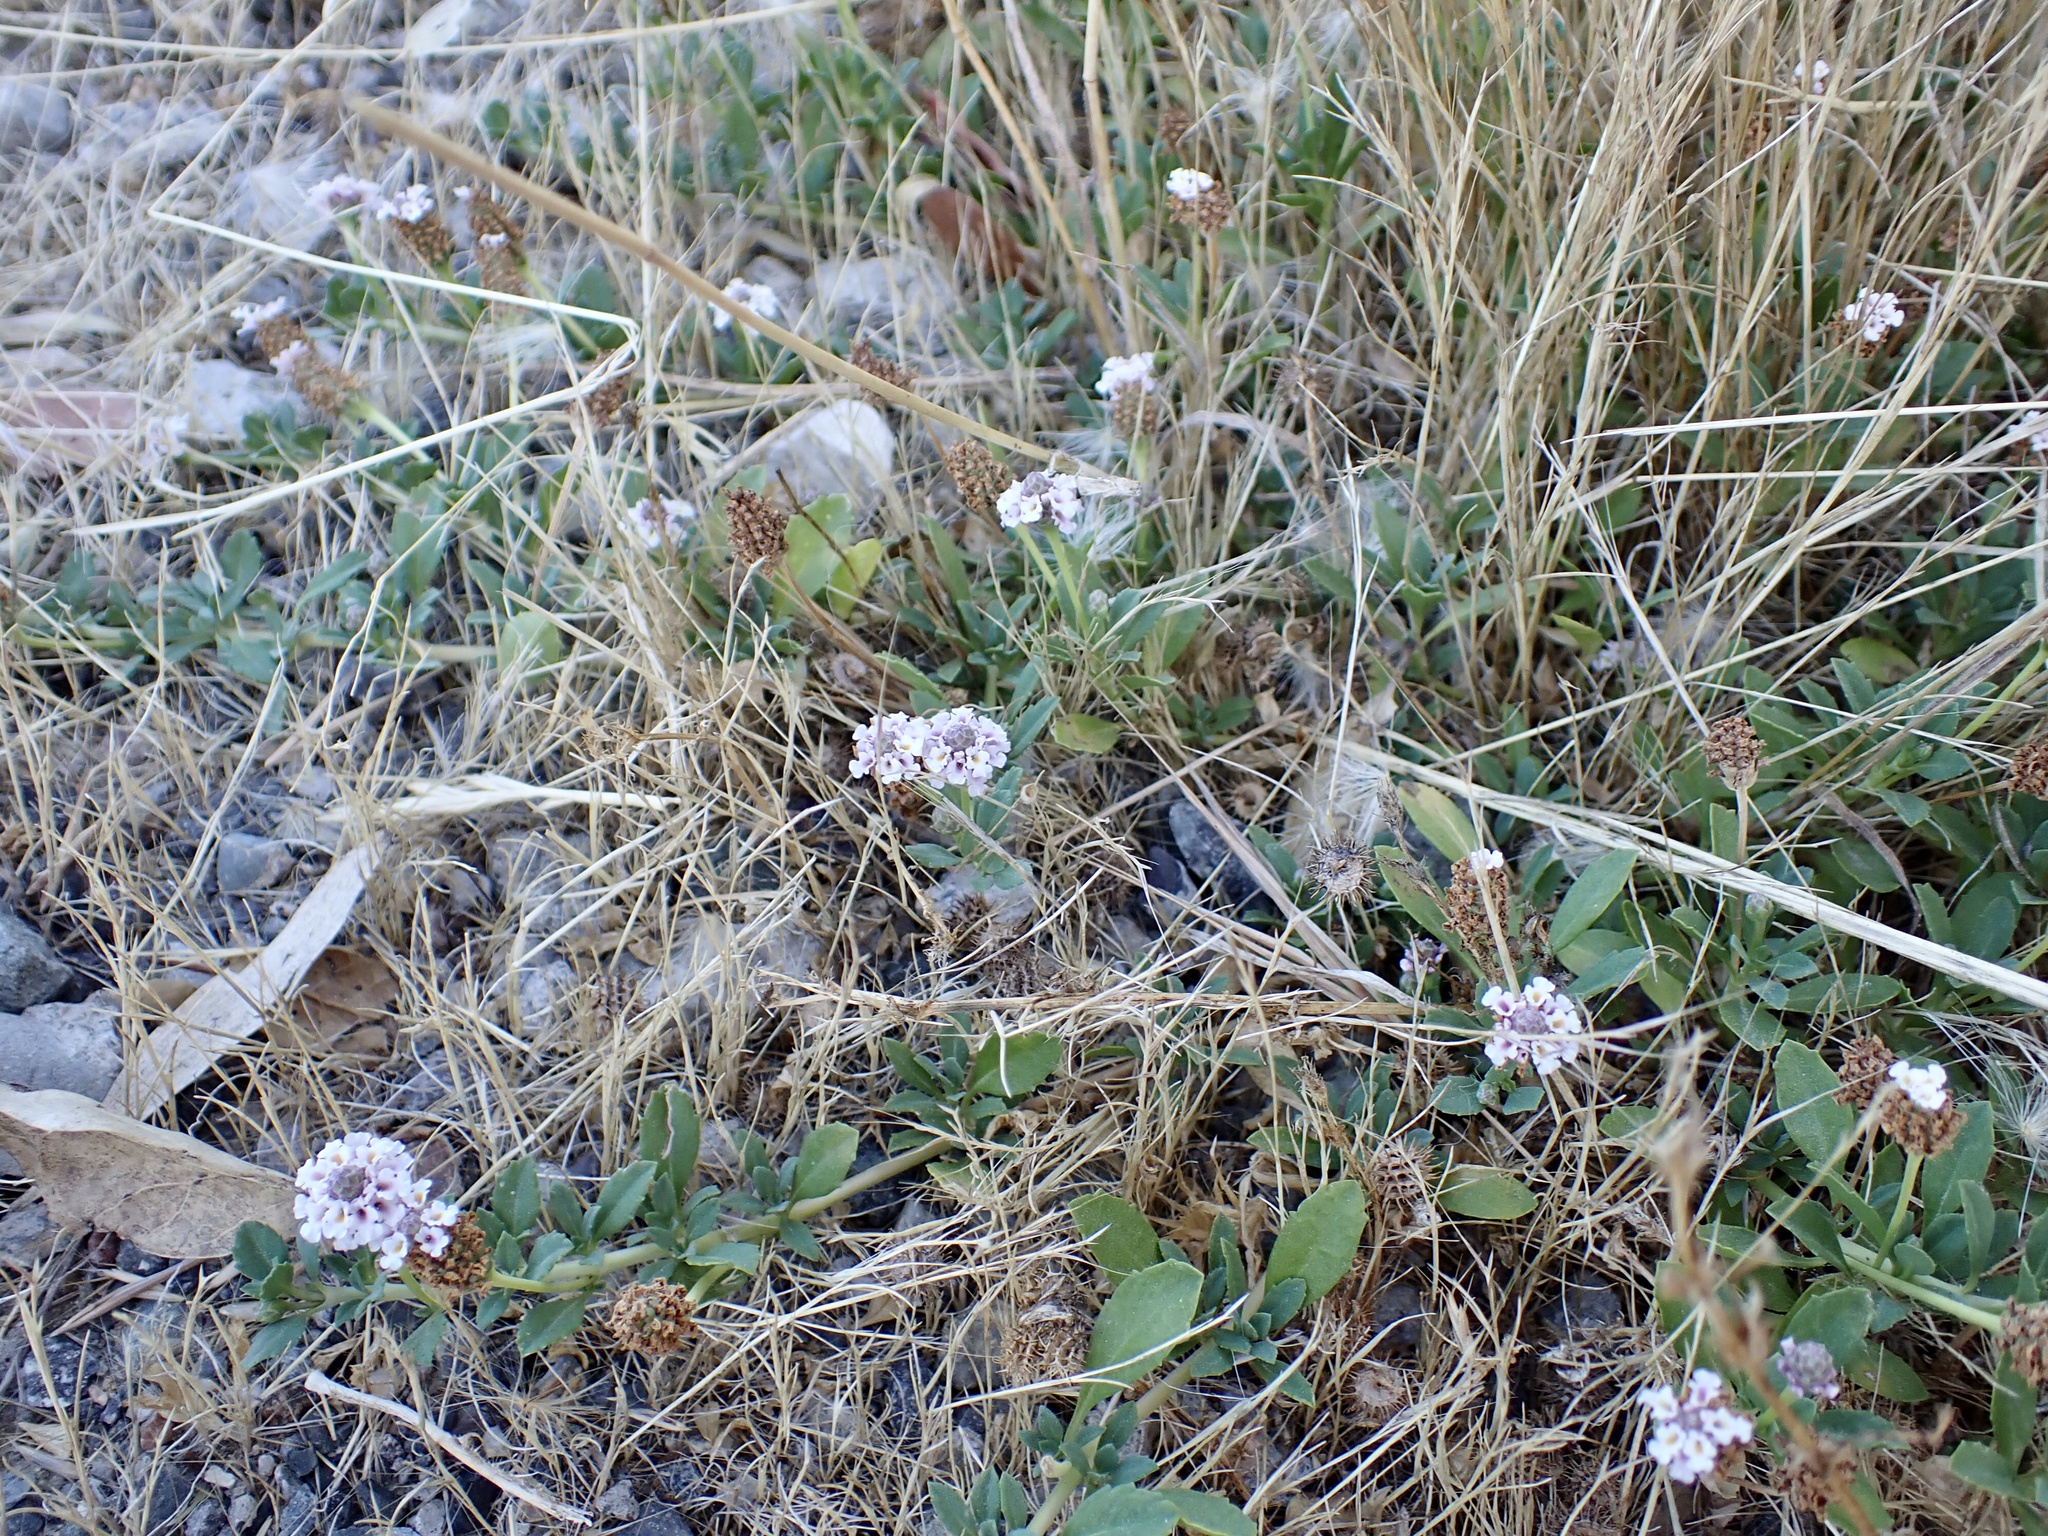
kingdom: Plantae
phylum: Tracheophyta
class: Magnoliopsida
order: Lamiales
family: Verbenaceae
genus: Phyla
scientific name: Phyla nodiflora
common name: Frogfruit
